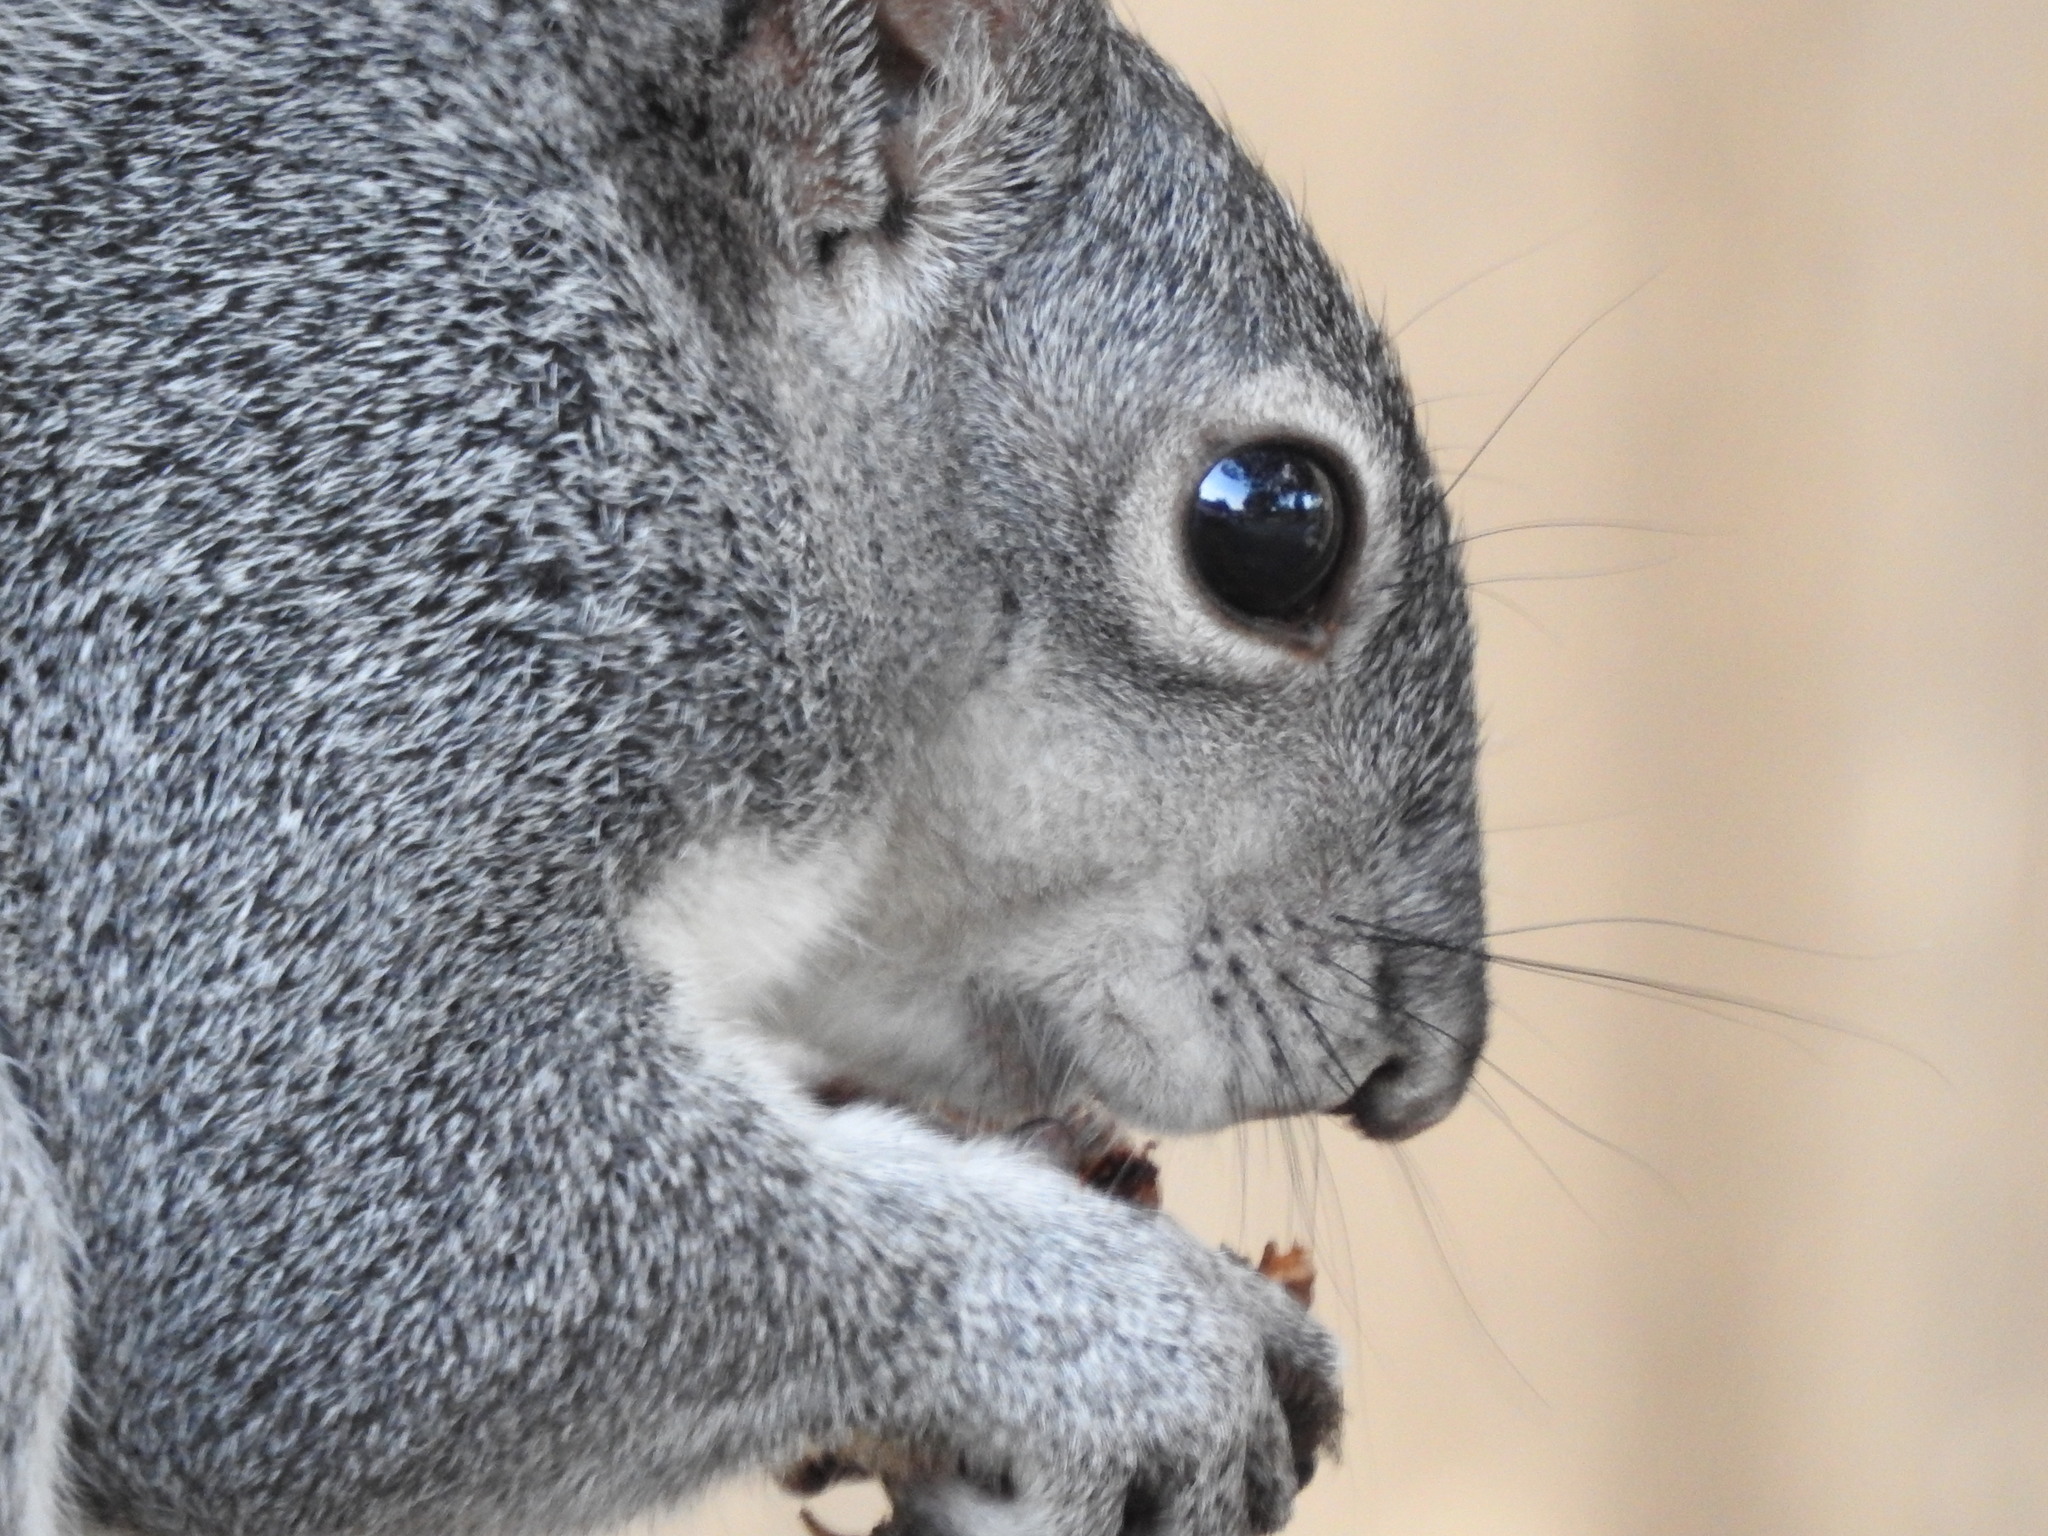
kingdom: Animalia
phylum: Chordata
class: Mammalia
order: Rodentia
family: Sciuridae
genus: Sciurus
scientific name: Sciurus griseus
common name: Western gray squirrel
